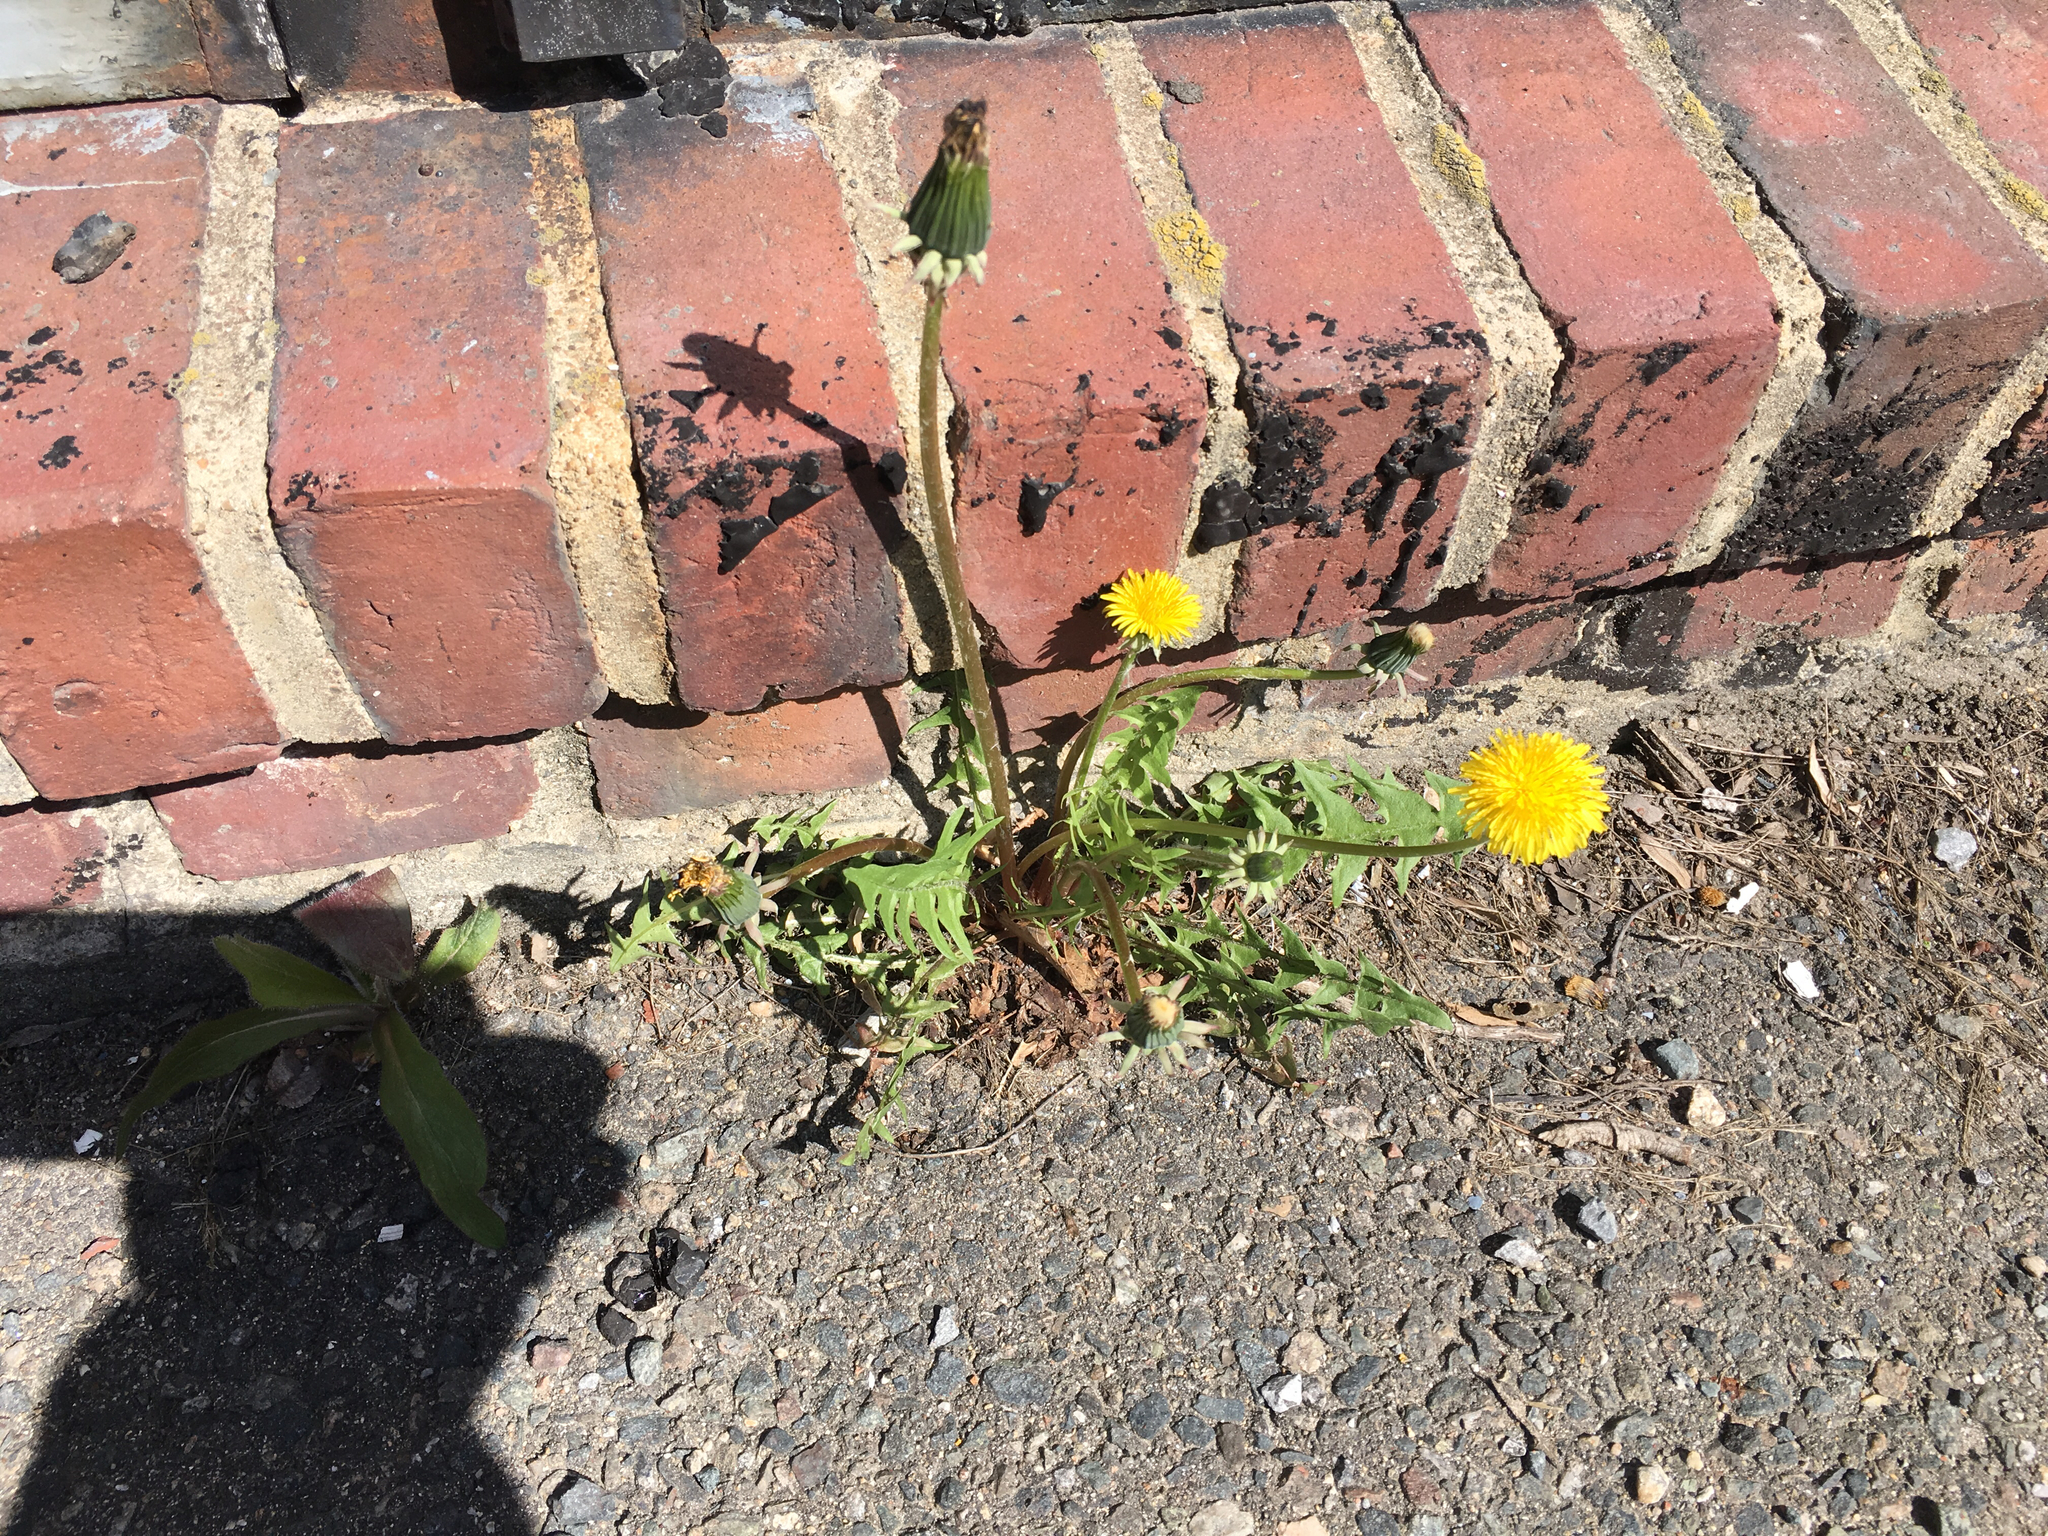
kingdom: Plantae
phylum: Tracheophyta
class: Magnoliopsida
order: Asterales
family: Asteraceae
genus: Taraxacum
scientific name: Taraxacum officinale
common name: Common dandelion
